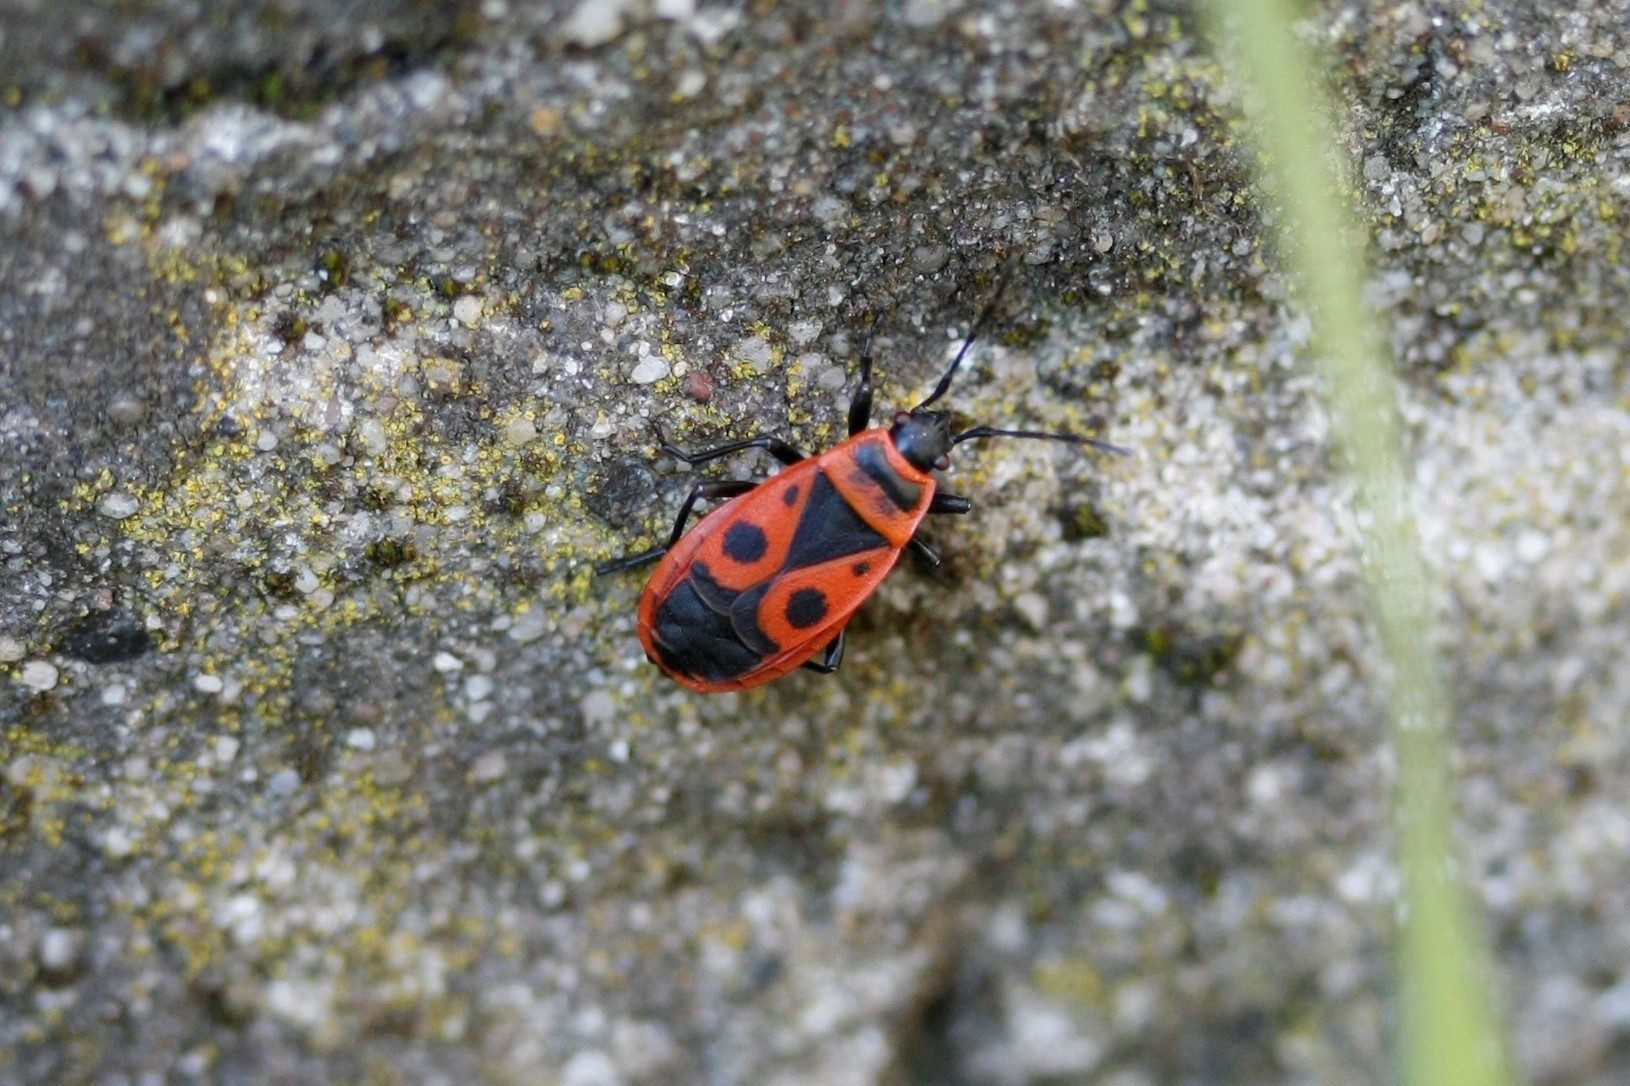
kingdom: Animalia
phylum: Arthropoda
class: Insecta
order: Hemiptera
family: Pyrrhocoridae
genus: Pyrrhocoris
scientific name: Pyrrhocoris apterus
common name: Firebug
